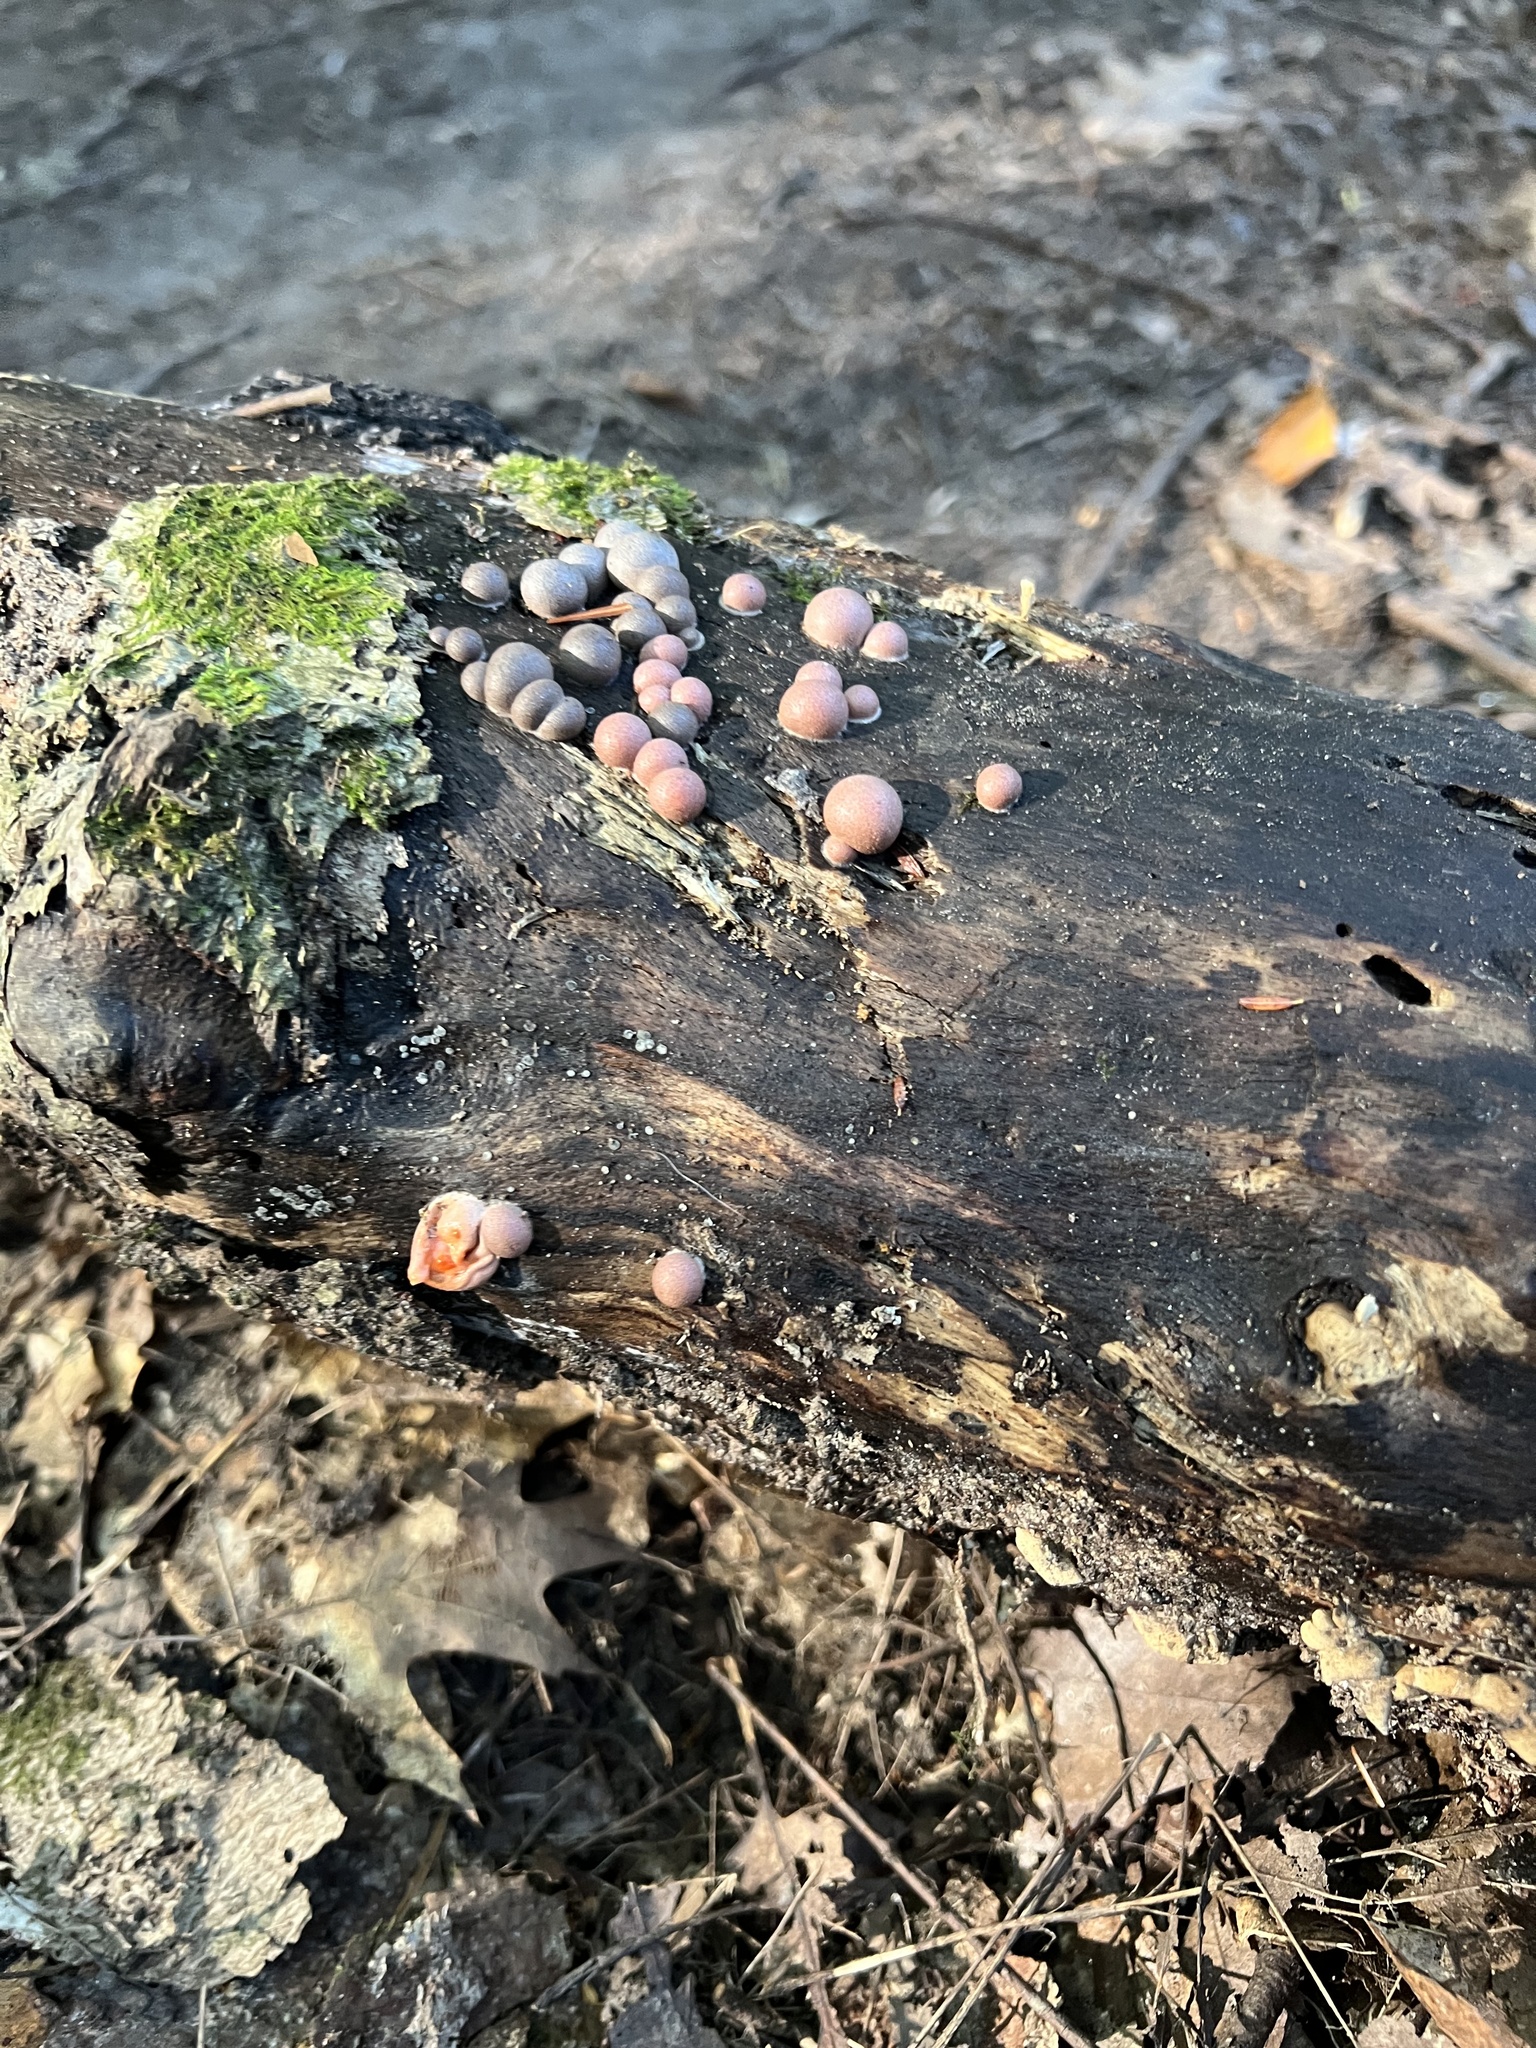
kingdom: Protozoa
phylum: Mycetozoa
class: Myxomycetes
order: Cribrariales
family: Tubiferaceae
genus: Lycogala
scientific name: Lycogala epidendrum
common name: Wolf's milk
